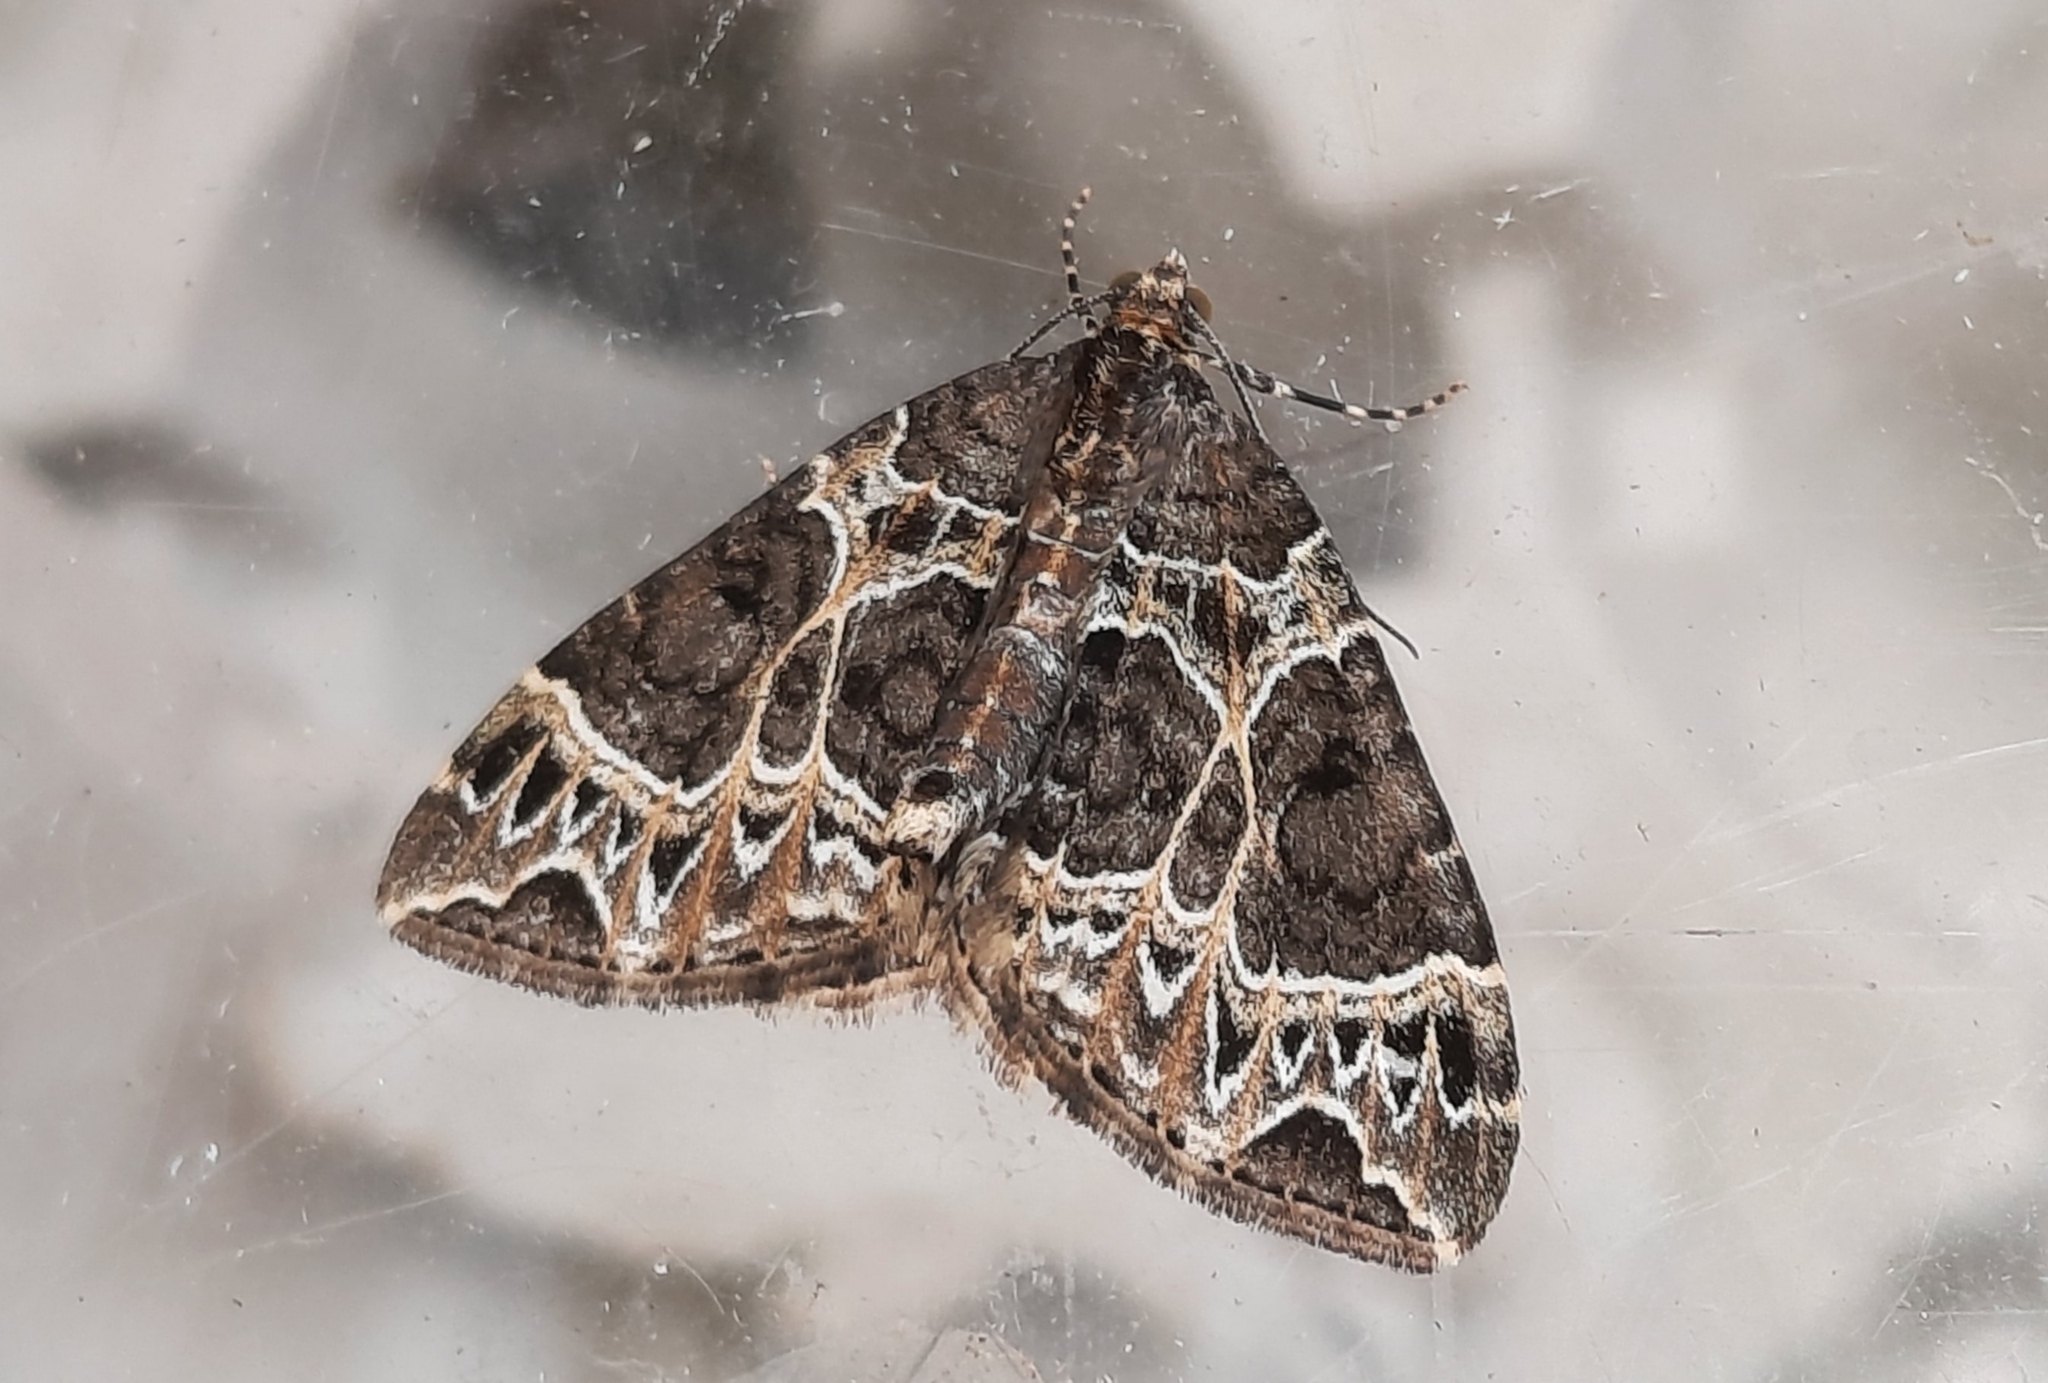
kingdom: Animalia
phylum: Arthropoda
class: Insecta
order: Lepidoptera
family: Geometridae
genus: Ecliptopera
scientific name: Ecliptopera silaceata
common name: Small phoenix
